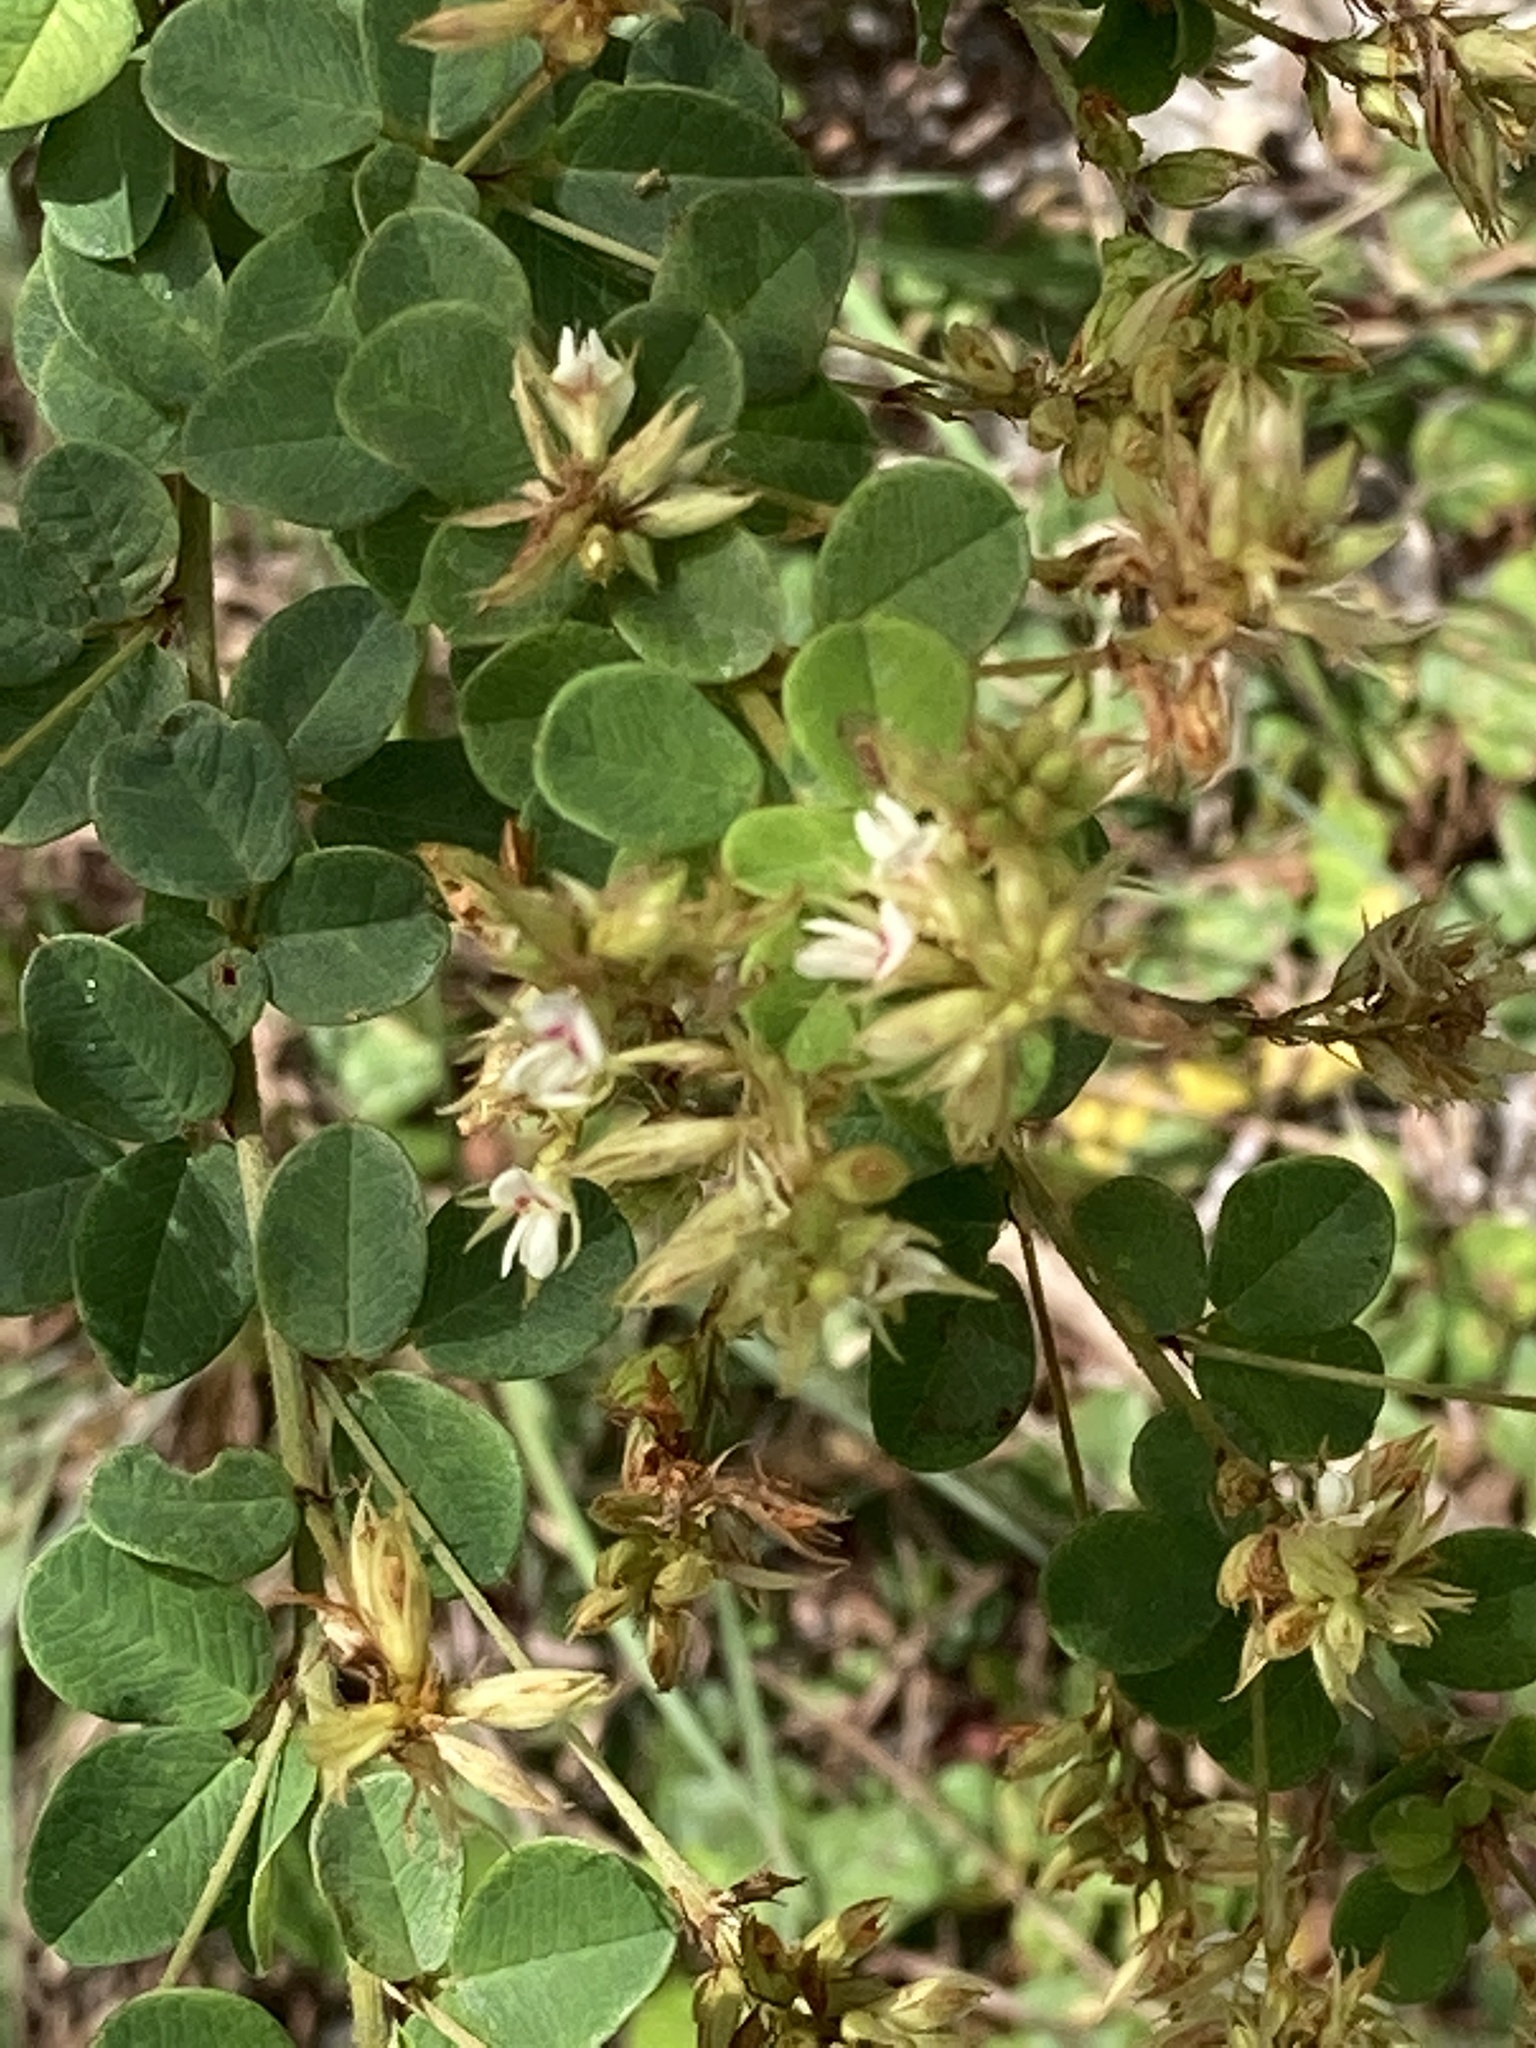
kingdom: Plantae
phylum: Tracheophyta
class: Magnoliopsida
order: Fabales
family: Fabaceae
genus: Lespedeza
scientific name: Lespedeza hirta
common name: Hairy lespedeza
